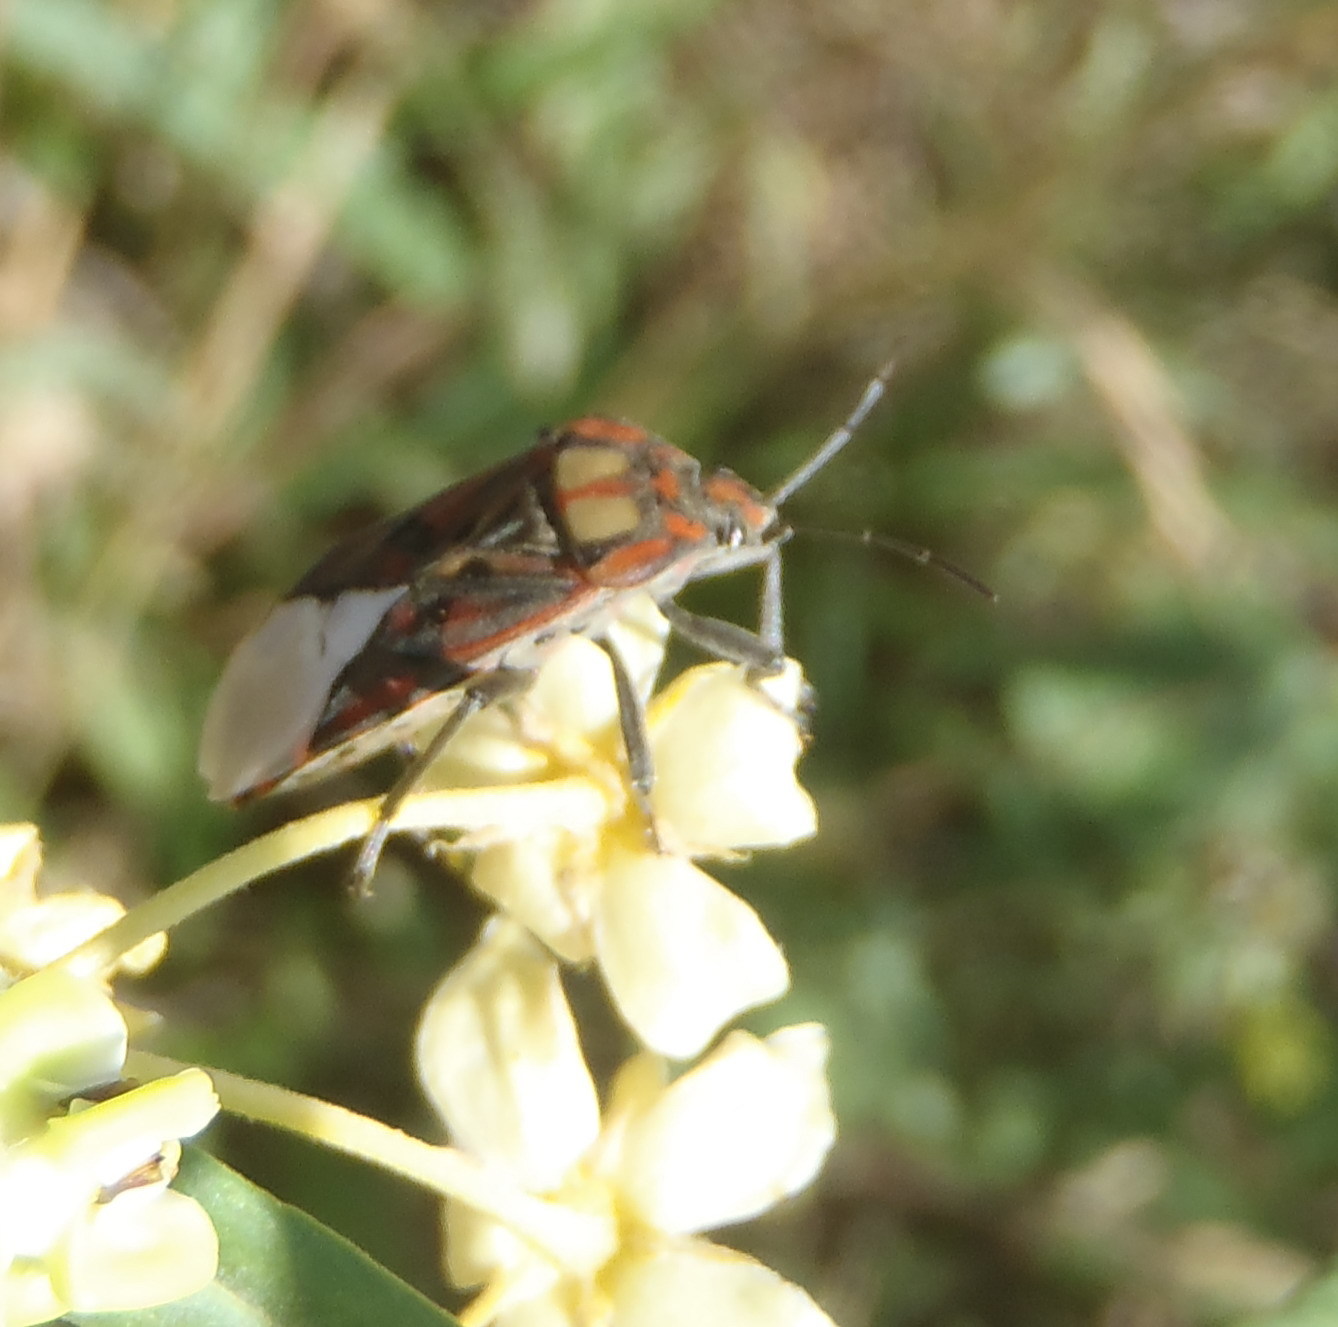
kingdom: Animalia
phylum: Arthropoda
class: Insecta
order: Hemiptera
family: Lygaeidae
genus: Spilostethus
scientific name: Spilostethus pandurus
